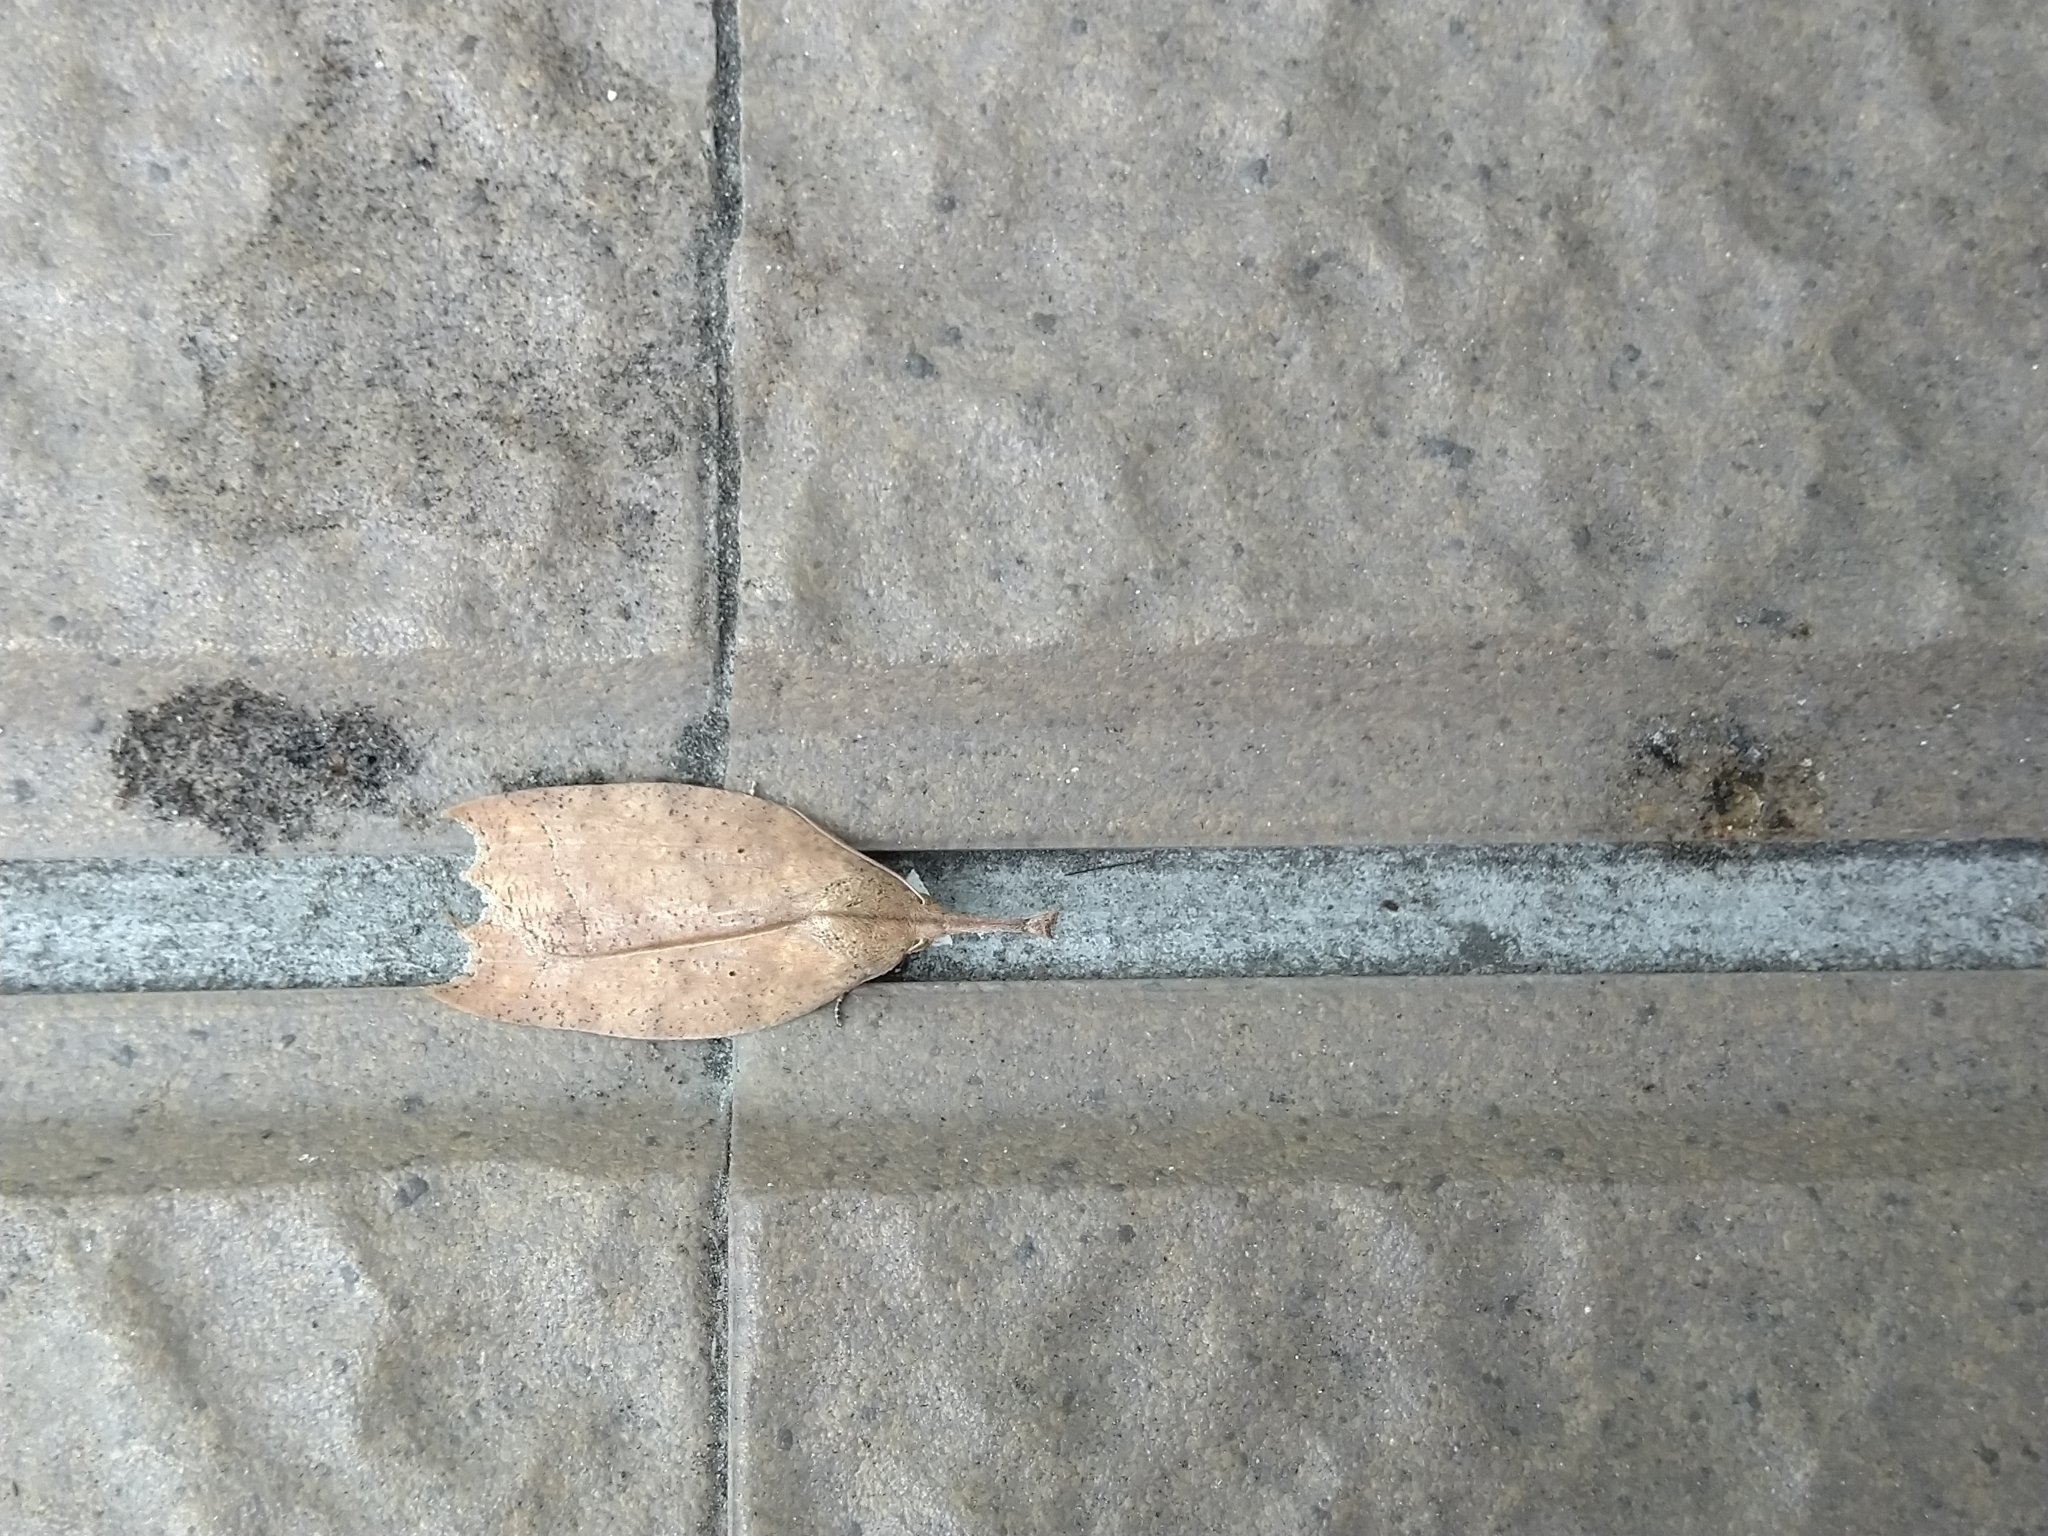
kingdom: Animalia
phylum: Arthropoda
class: Insecta
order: Lepidoptera
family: Erebidae
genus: Latirostrum
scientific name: Latirostrum bisacutum
